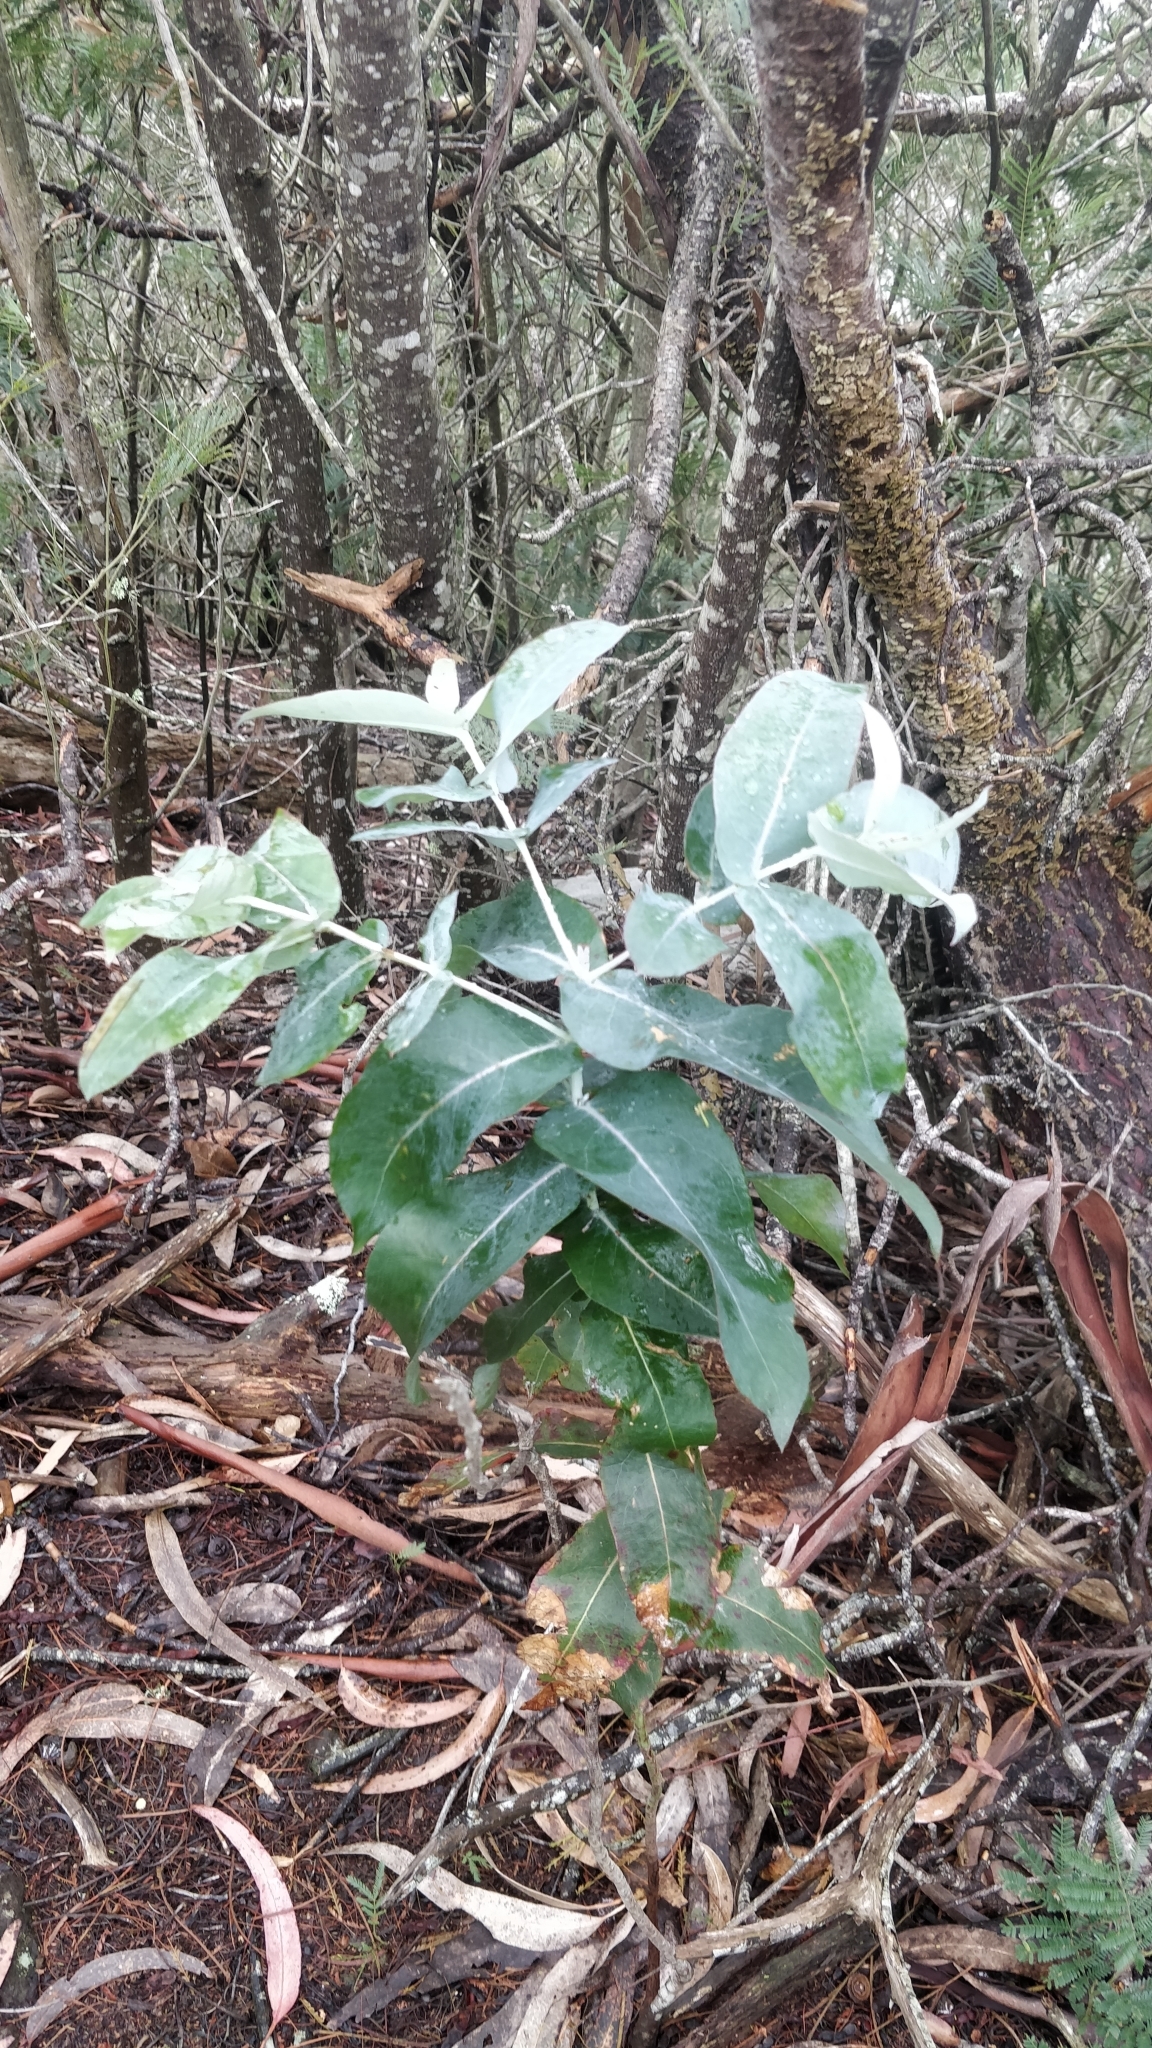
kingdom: Plantae
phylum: Tracheophyta
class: Magnoliopsida
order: Myrtales
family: Myrtaceae
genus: Eucalyptus
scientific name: Eucalyptus globulus
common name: Southern blue-gum
